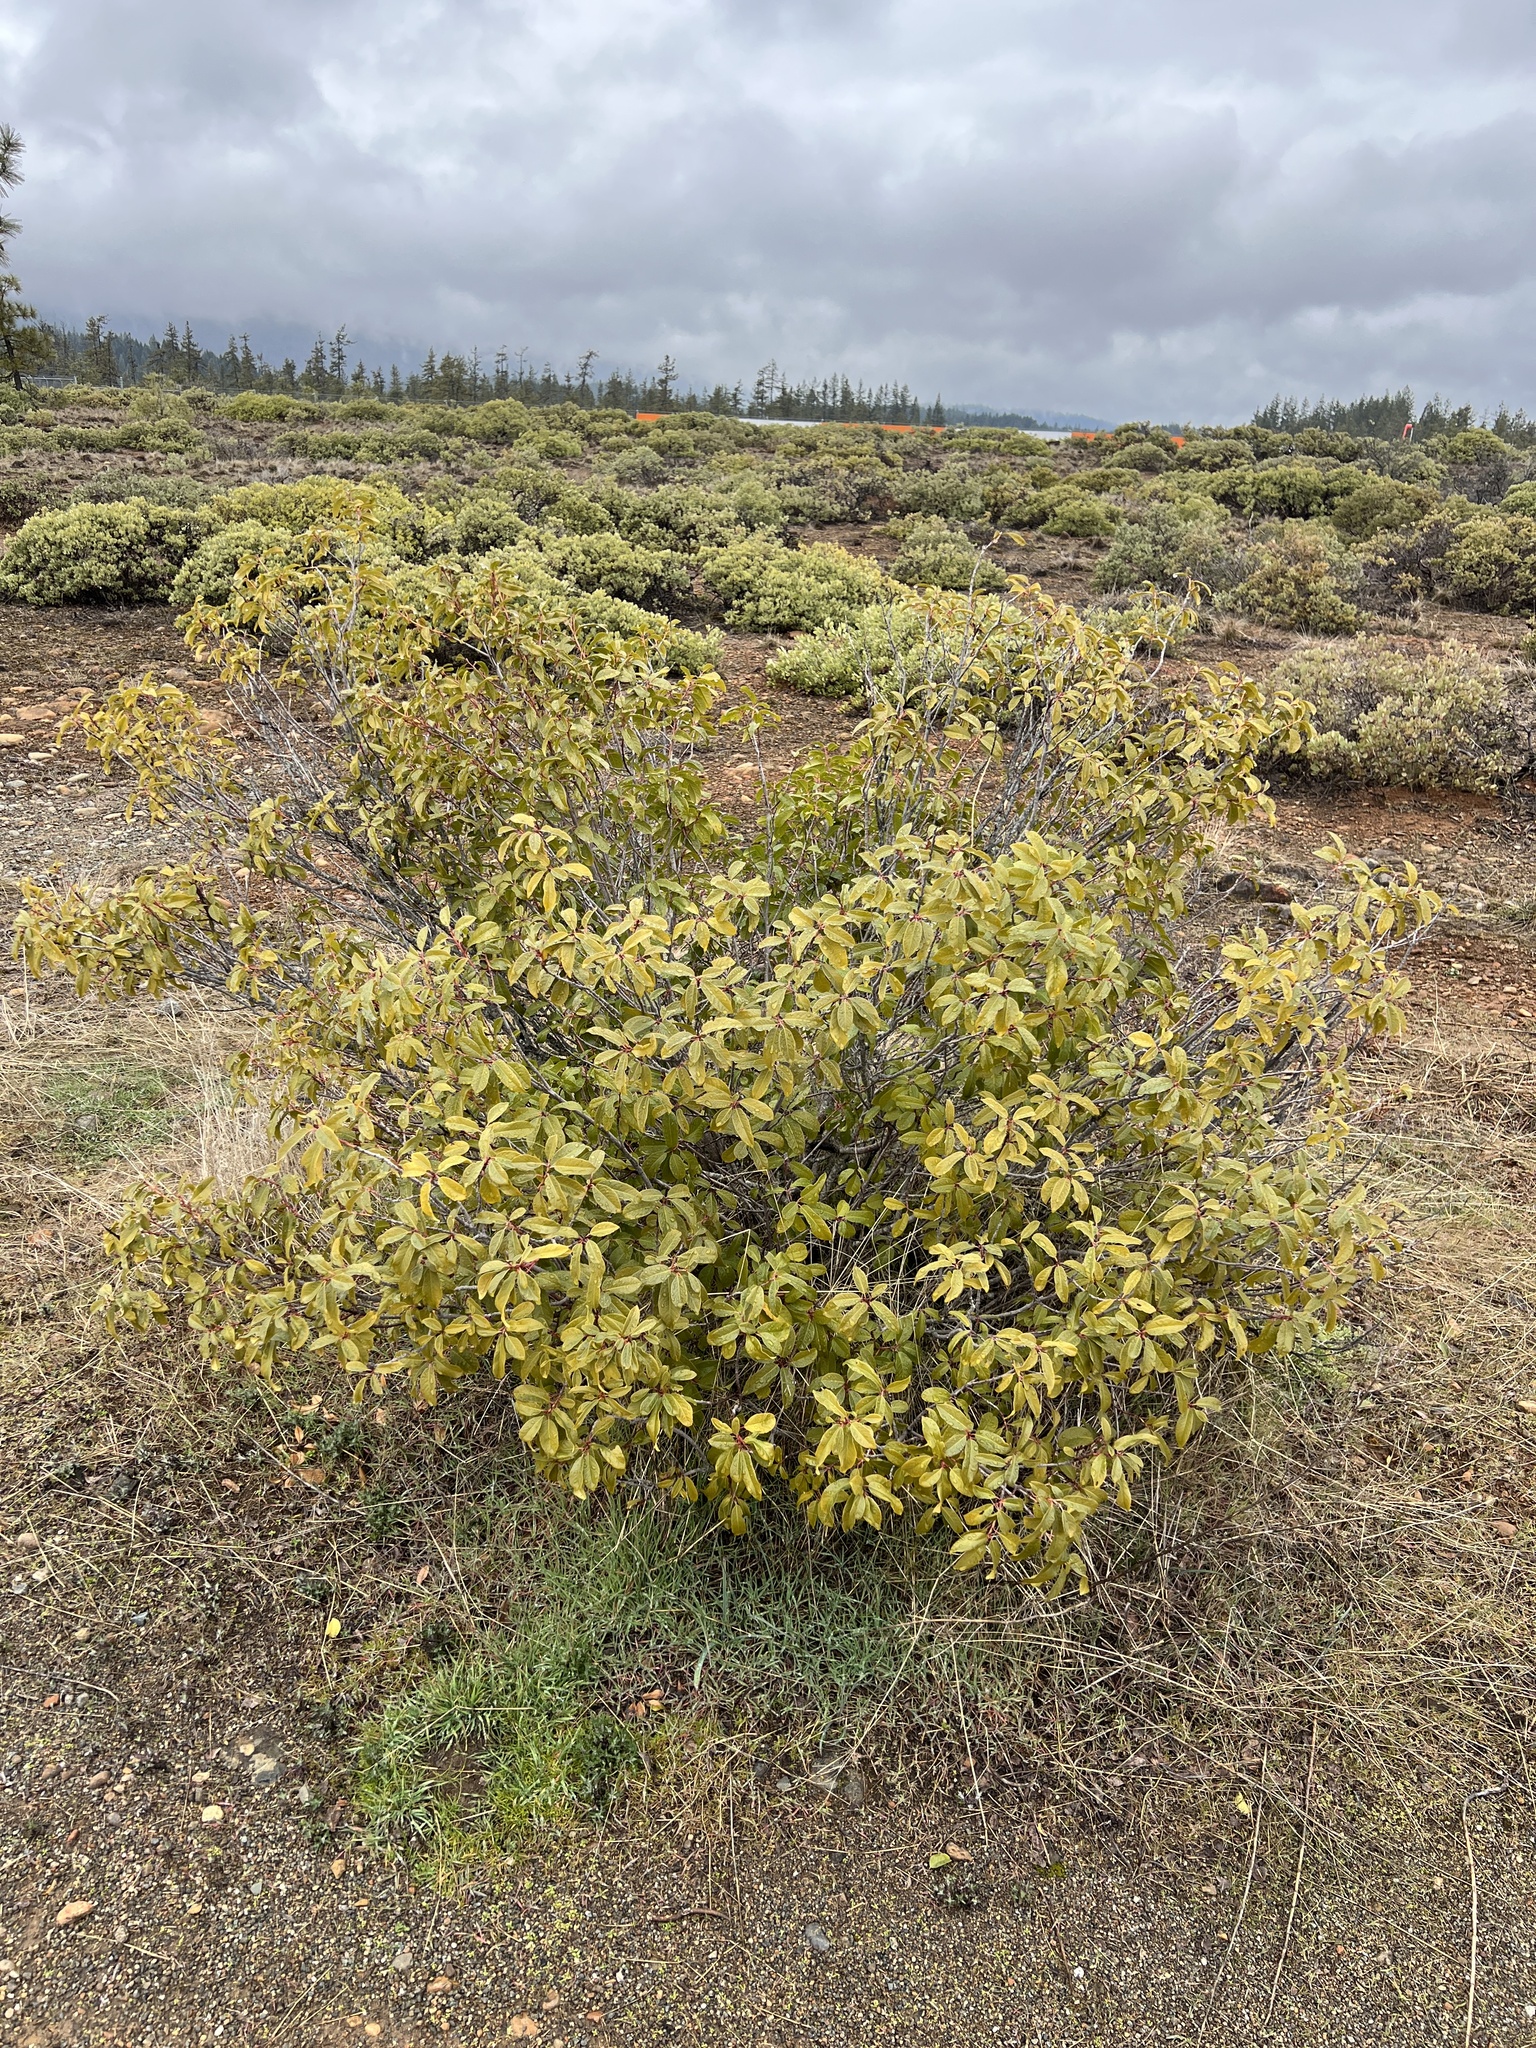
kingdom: Plantae
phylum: Tracheophyta
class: Magnoliopsida
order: Rosales
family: Rhamnaceae
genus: Frangula
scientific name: Frangula californica
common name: California buckthorn
